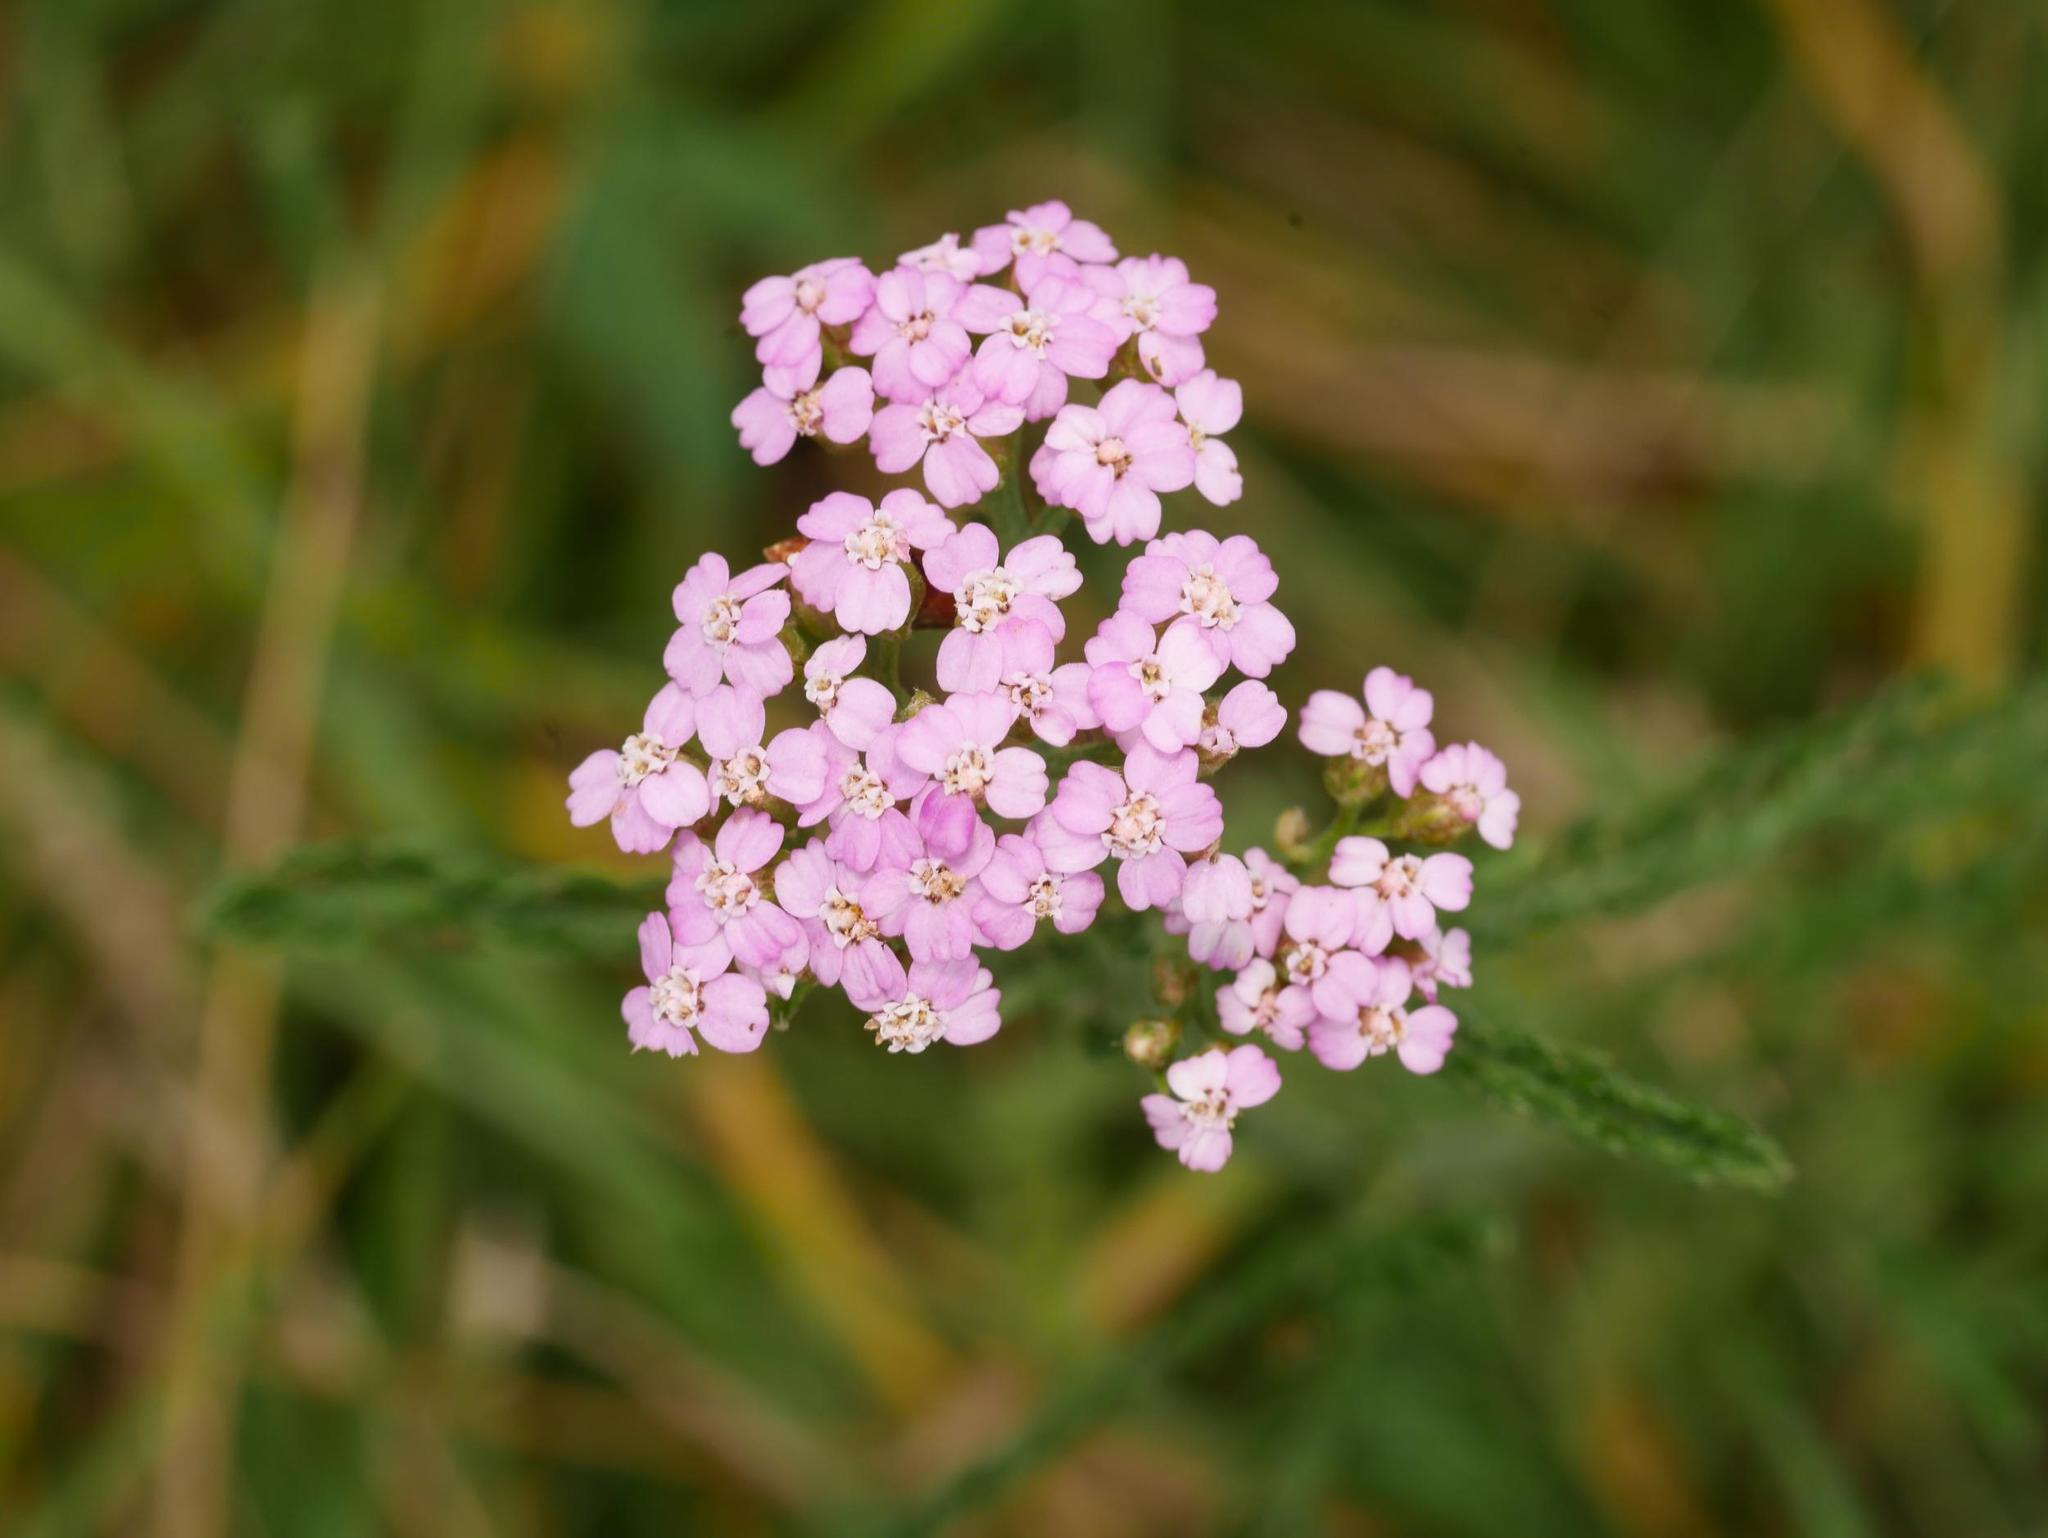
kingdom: Plantae
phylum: Tracheophyta
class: Magnoliopsida
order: Asterales
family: Asteraceae
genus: Achillea
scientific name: Achillea millefolium
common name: Yarrow
